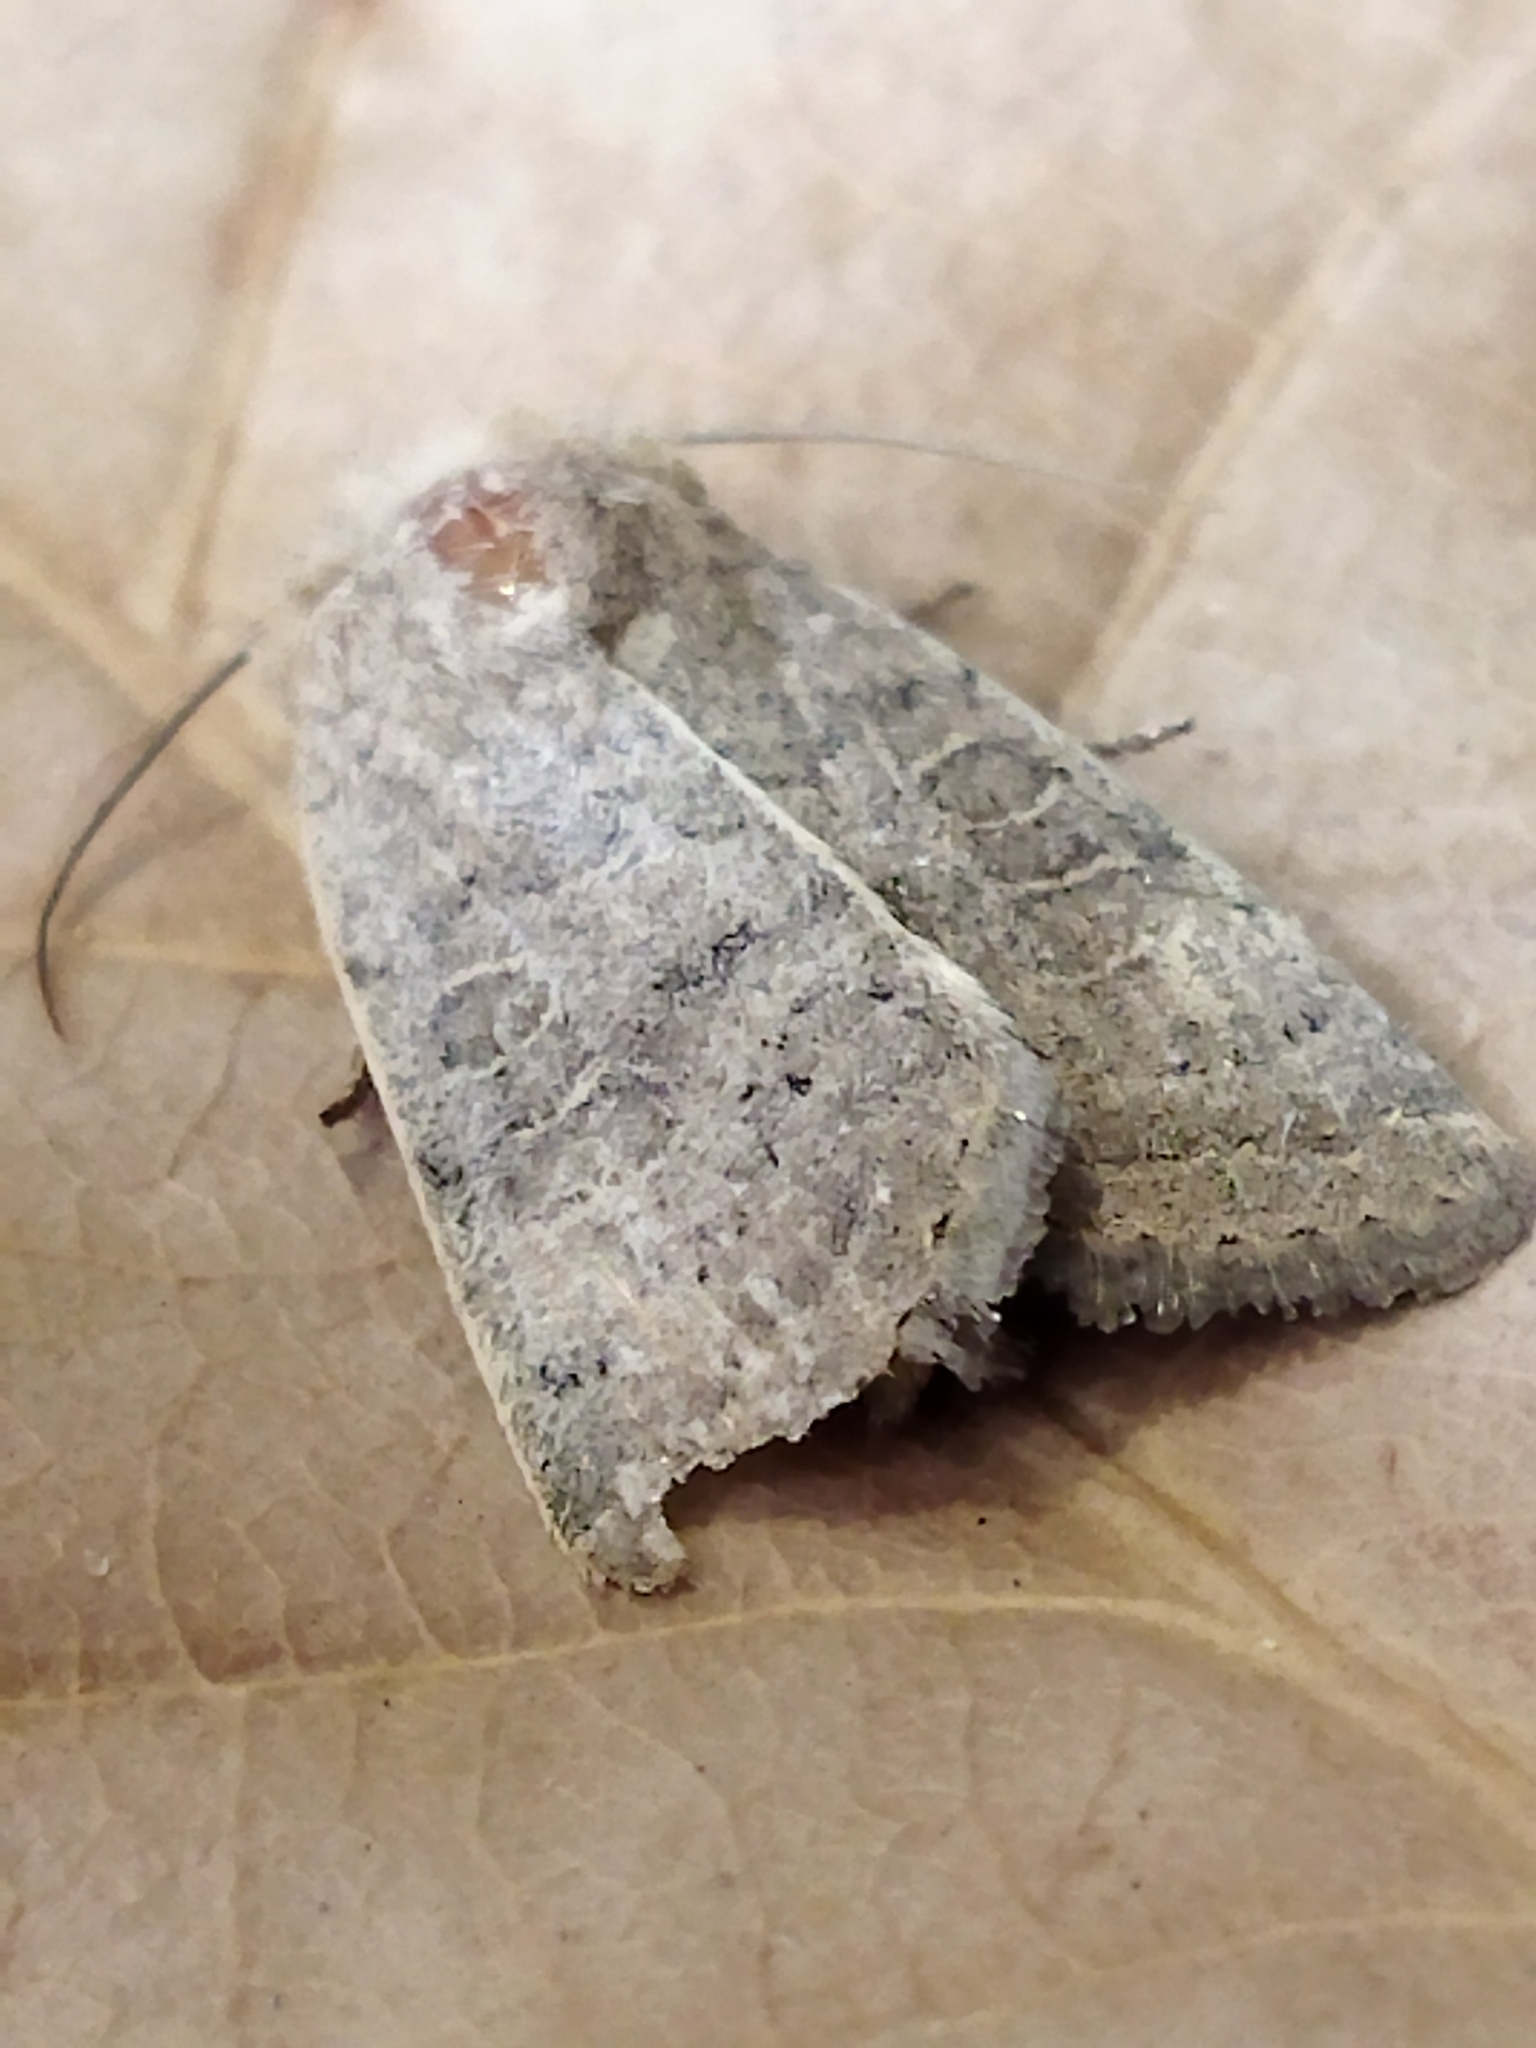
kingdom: Animalia
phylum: Arthropoda
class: Insecta
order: Lepidoptera
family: Noctuidae
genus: Hoplodrina
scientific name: Hoplodrina ambigua
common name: Vine's rustic
